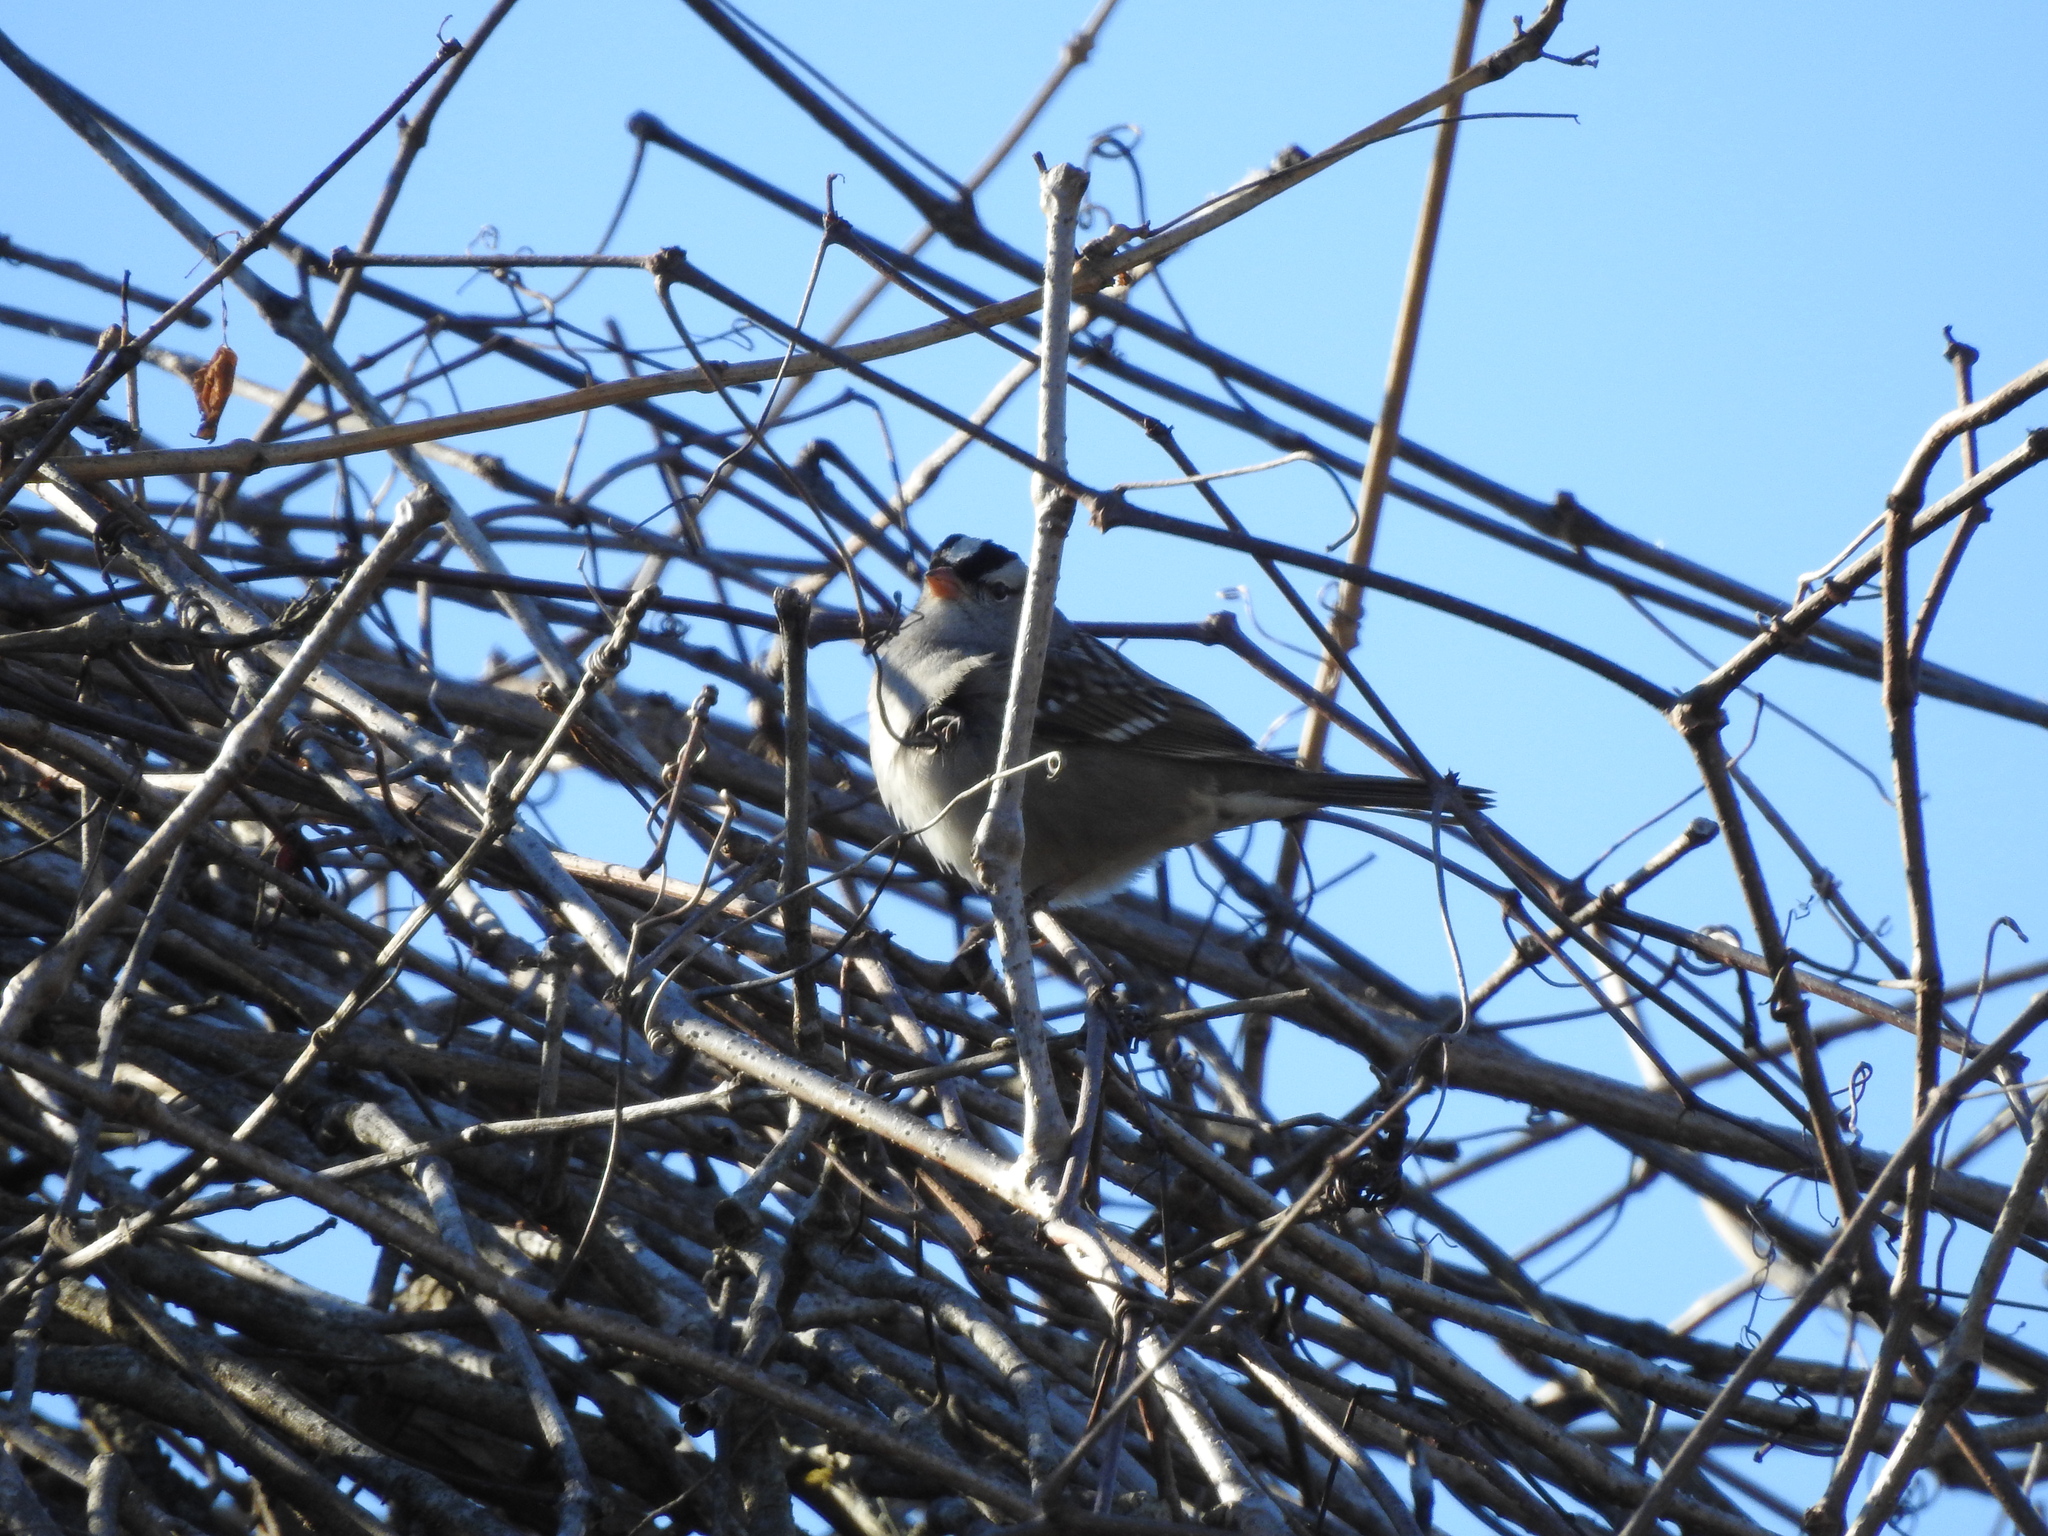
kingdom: Animalia
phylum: Chordata
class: Aves
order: Passeriformes
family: Passerellidae
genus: Zonotrichia
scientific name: Zonotrichia leucophrys
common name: White-crowned sparrow
